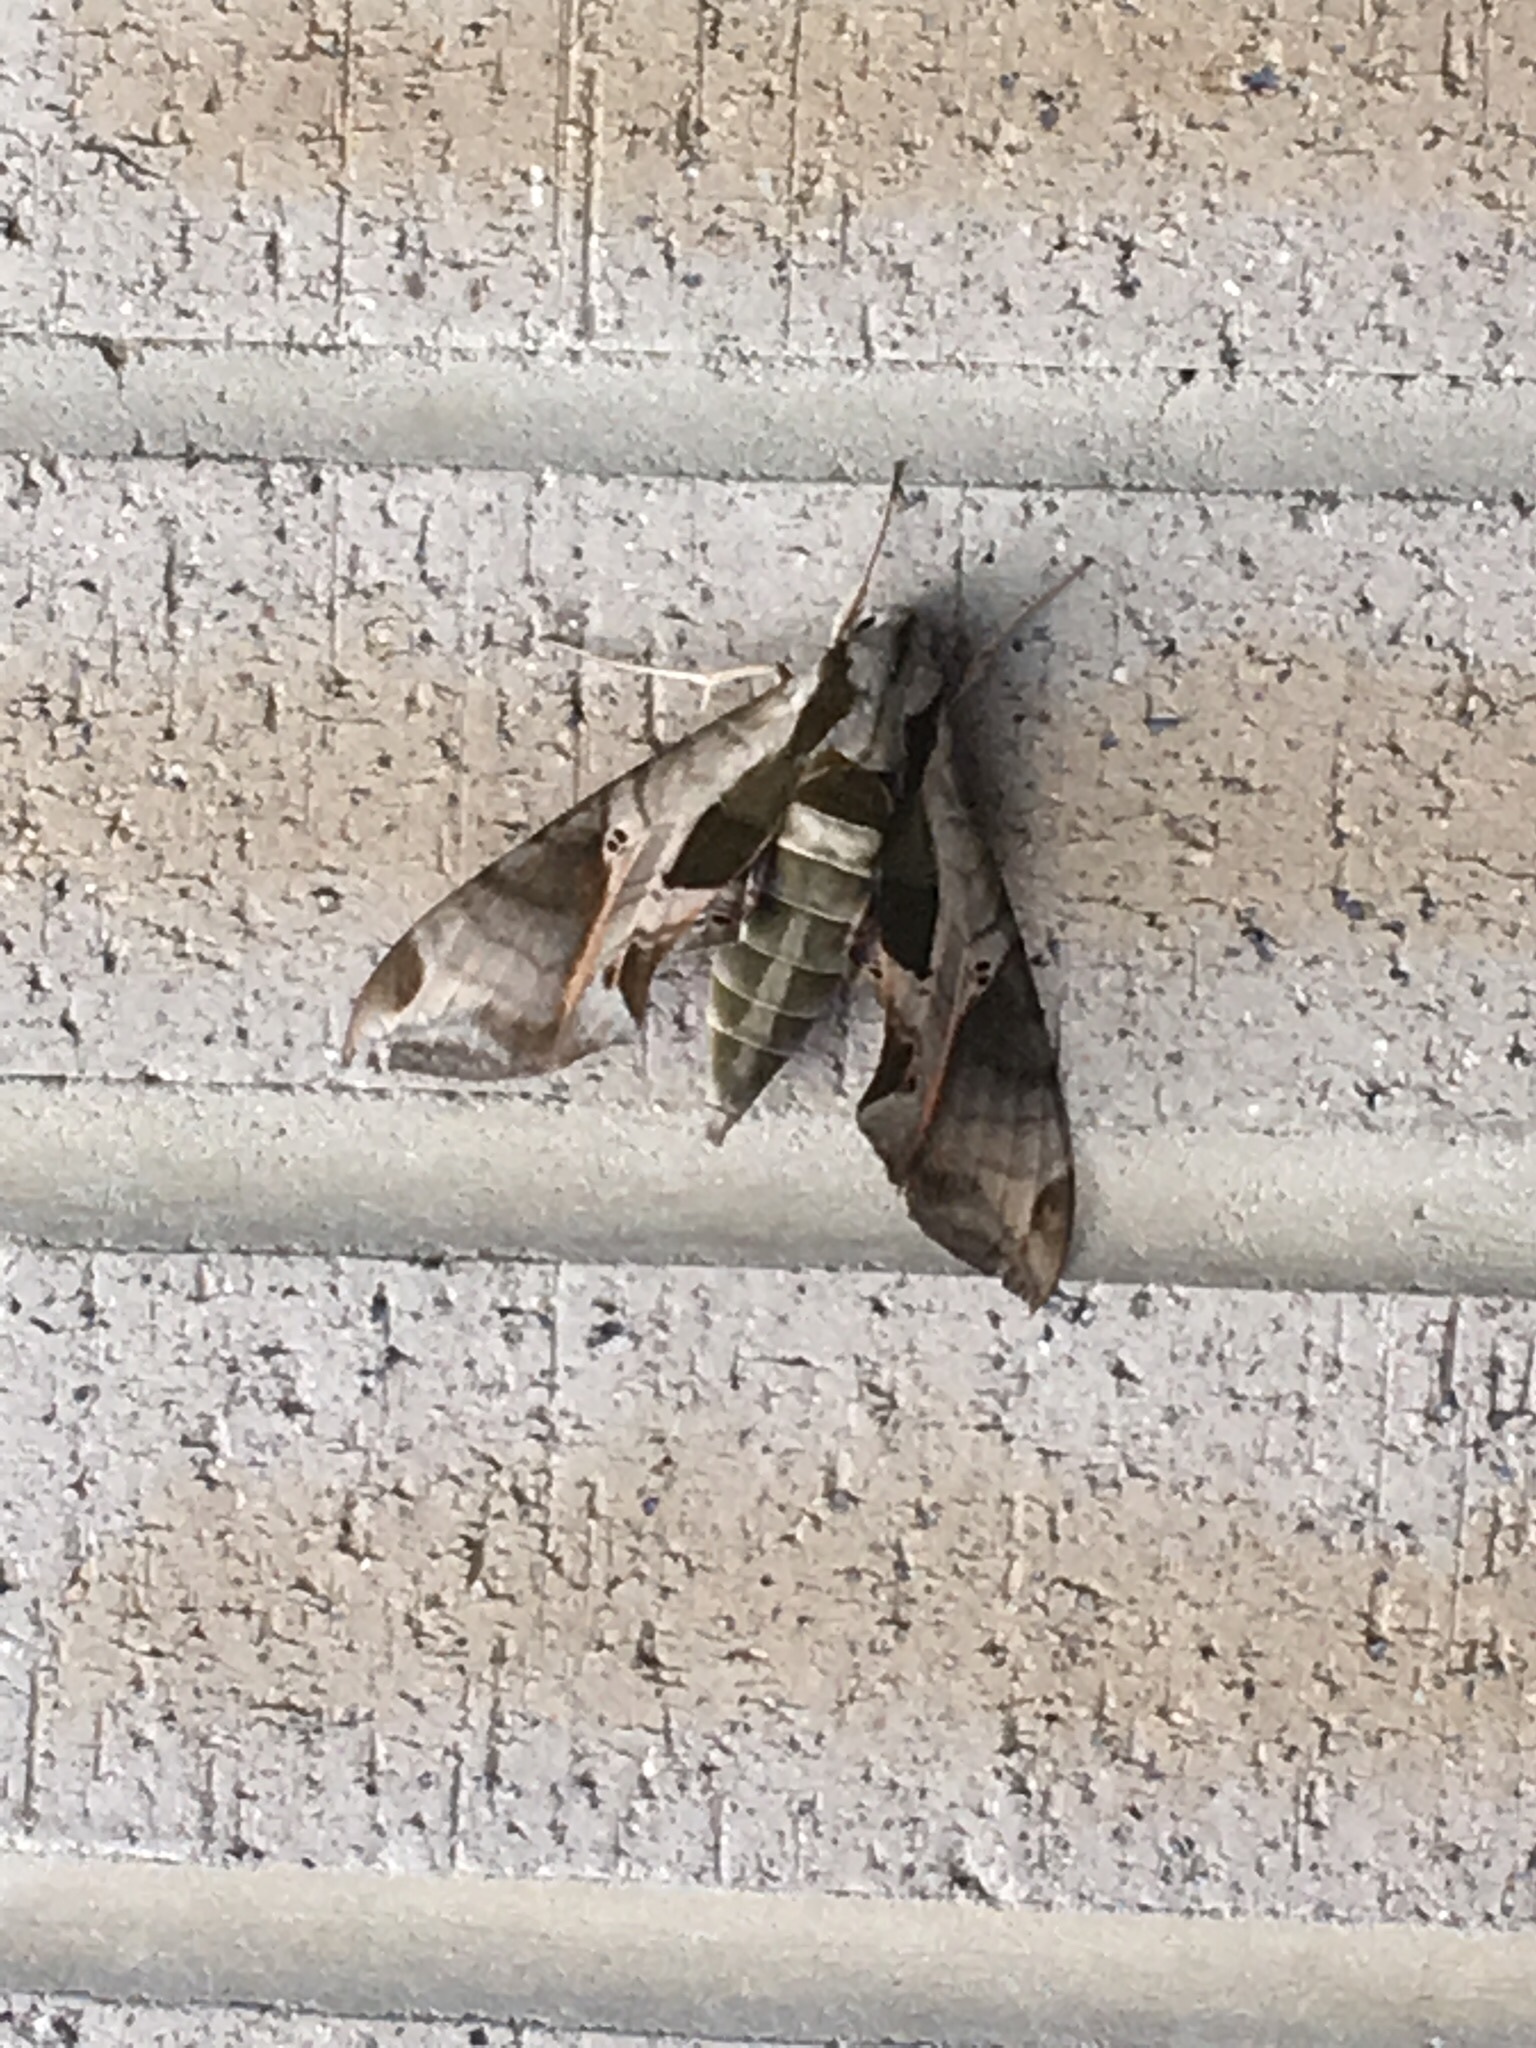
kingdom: Animalia
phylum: Arthropoda
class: Insecta
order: Lepidoptera
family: Sphingidae
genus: Eumorpha
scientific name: Eumorpha pandorus
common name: Pandora sphinx
